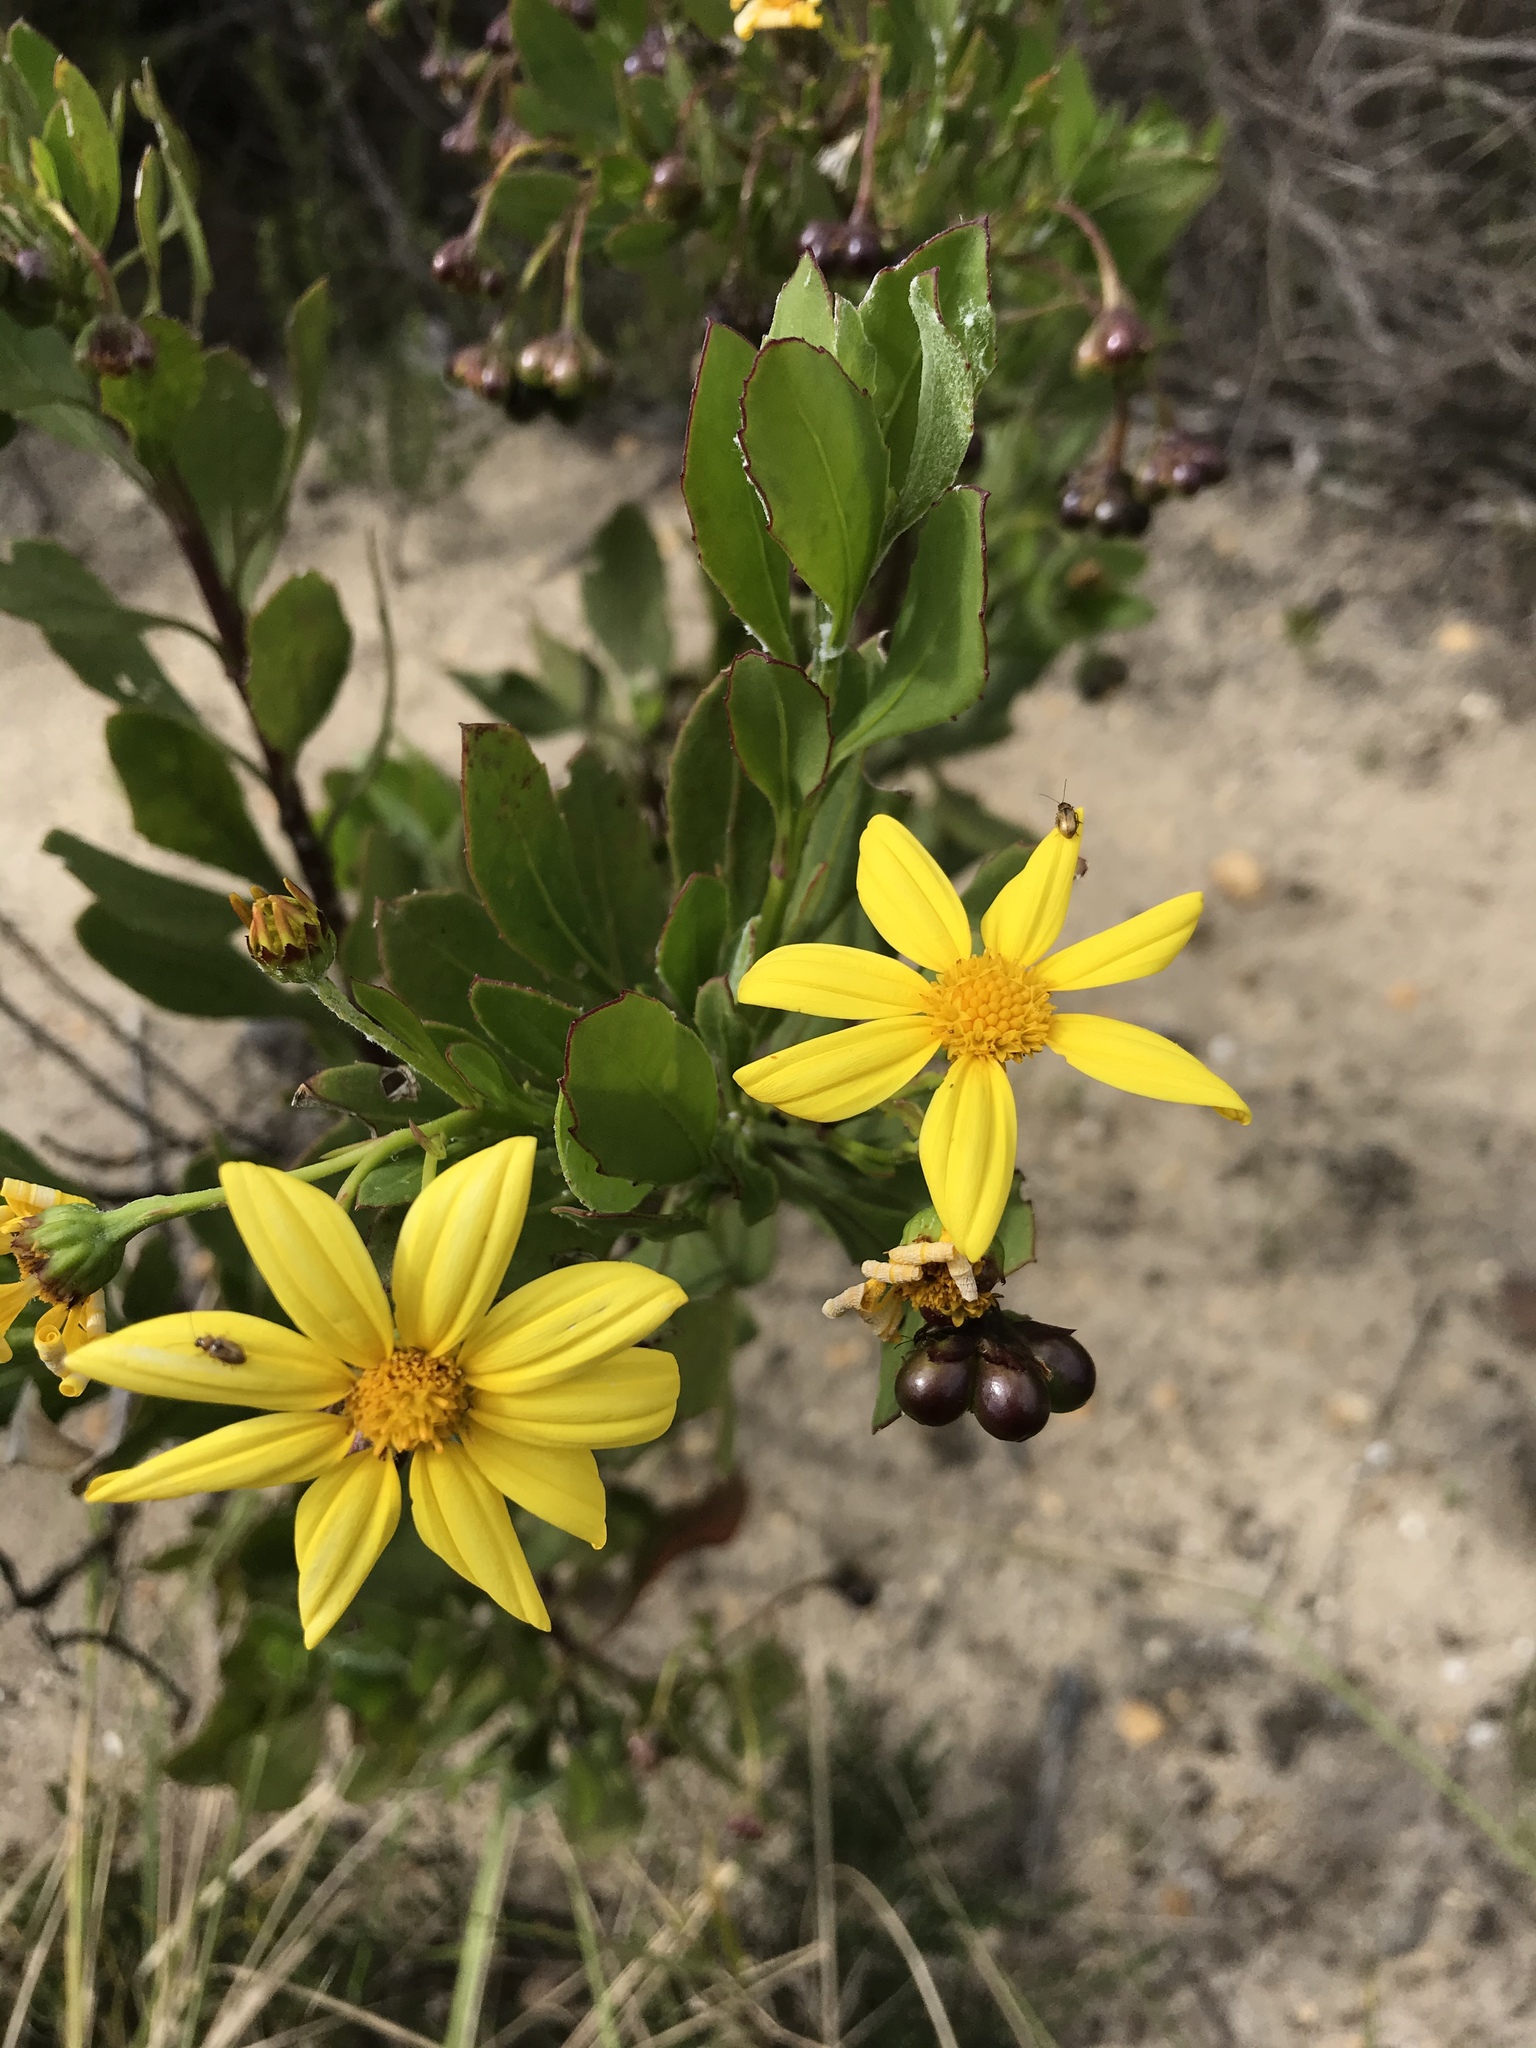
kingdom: Plantae
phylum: Tracheophyta
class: Magnoliopsida
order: Asterales
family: Asteraceae
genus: Osteospermum
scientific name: Osteospermum moniliferum
